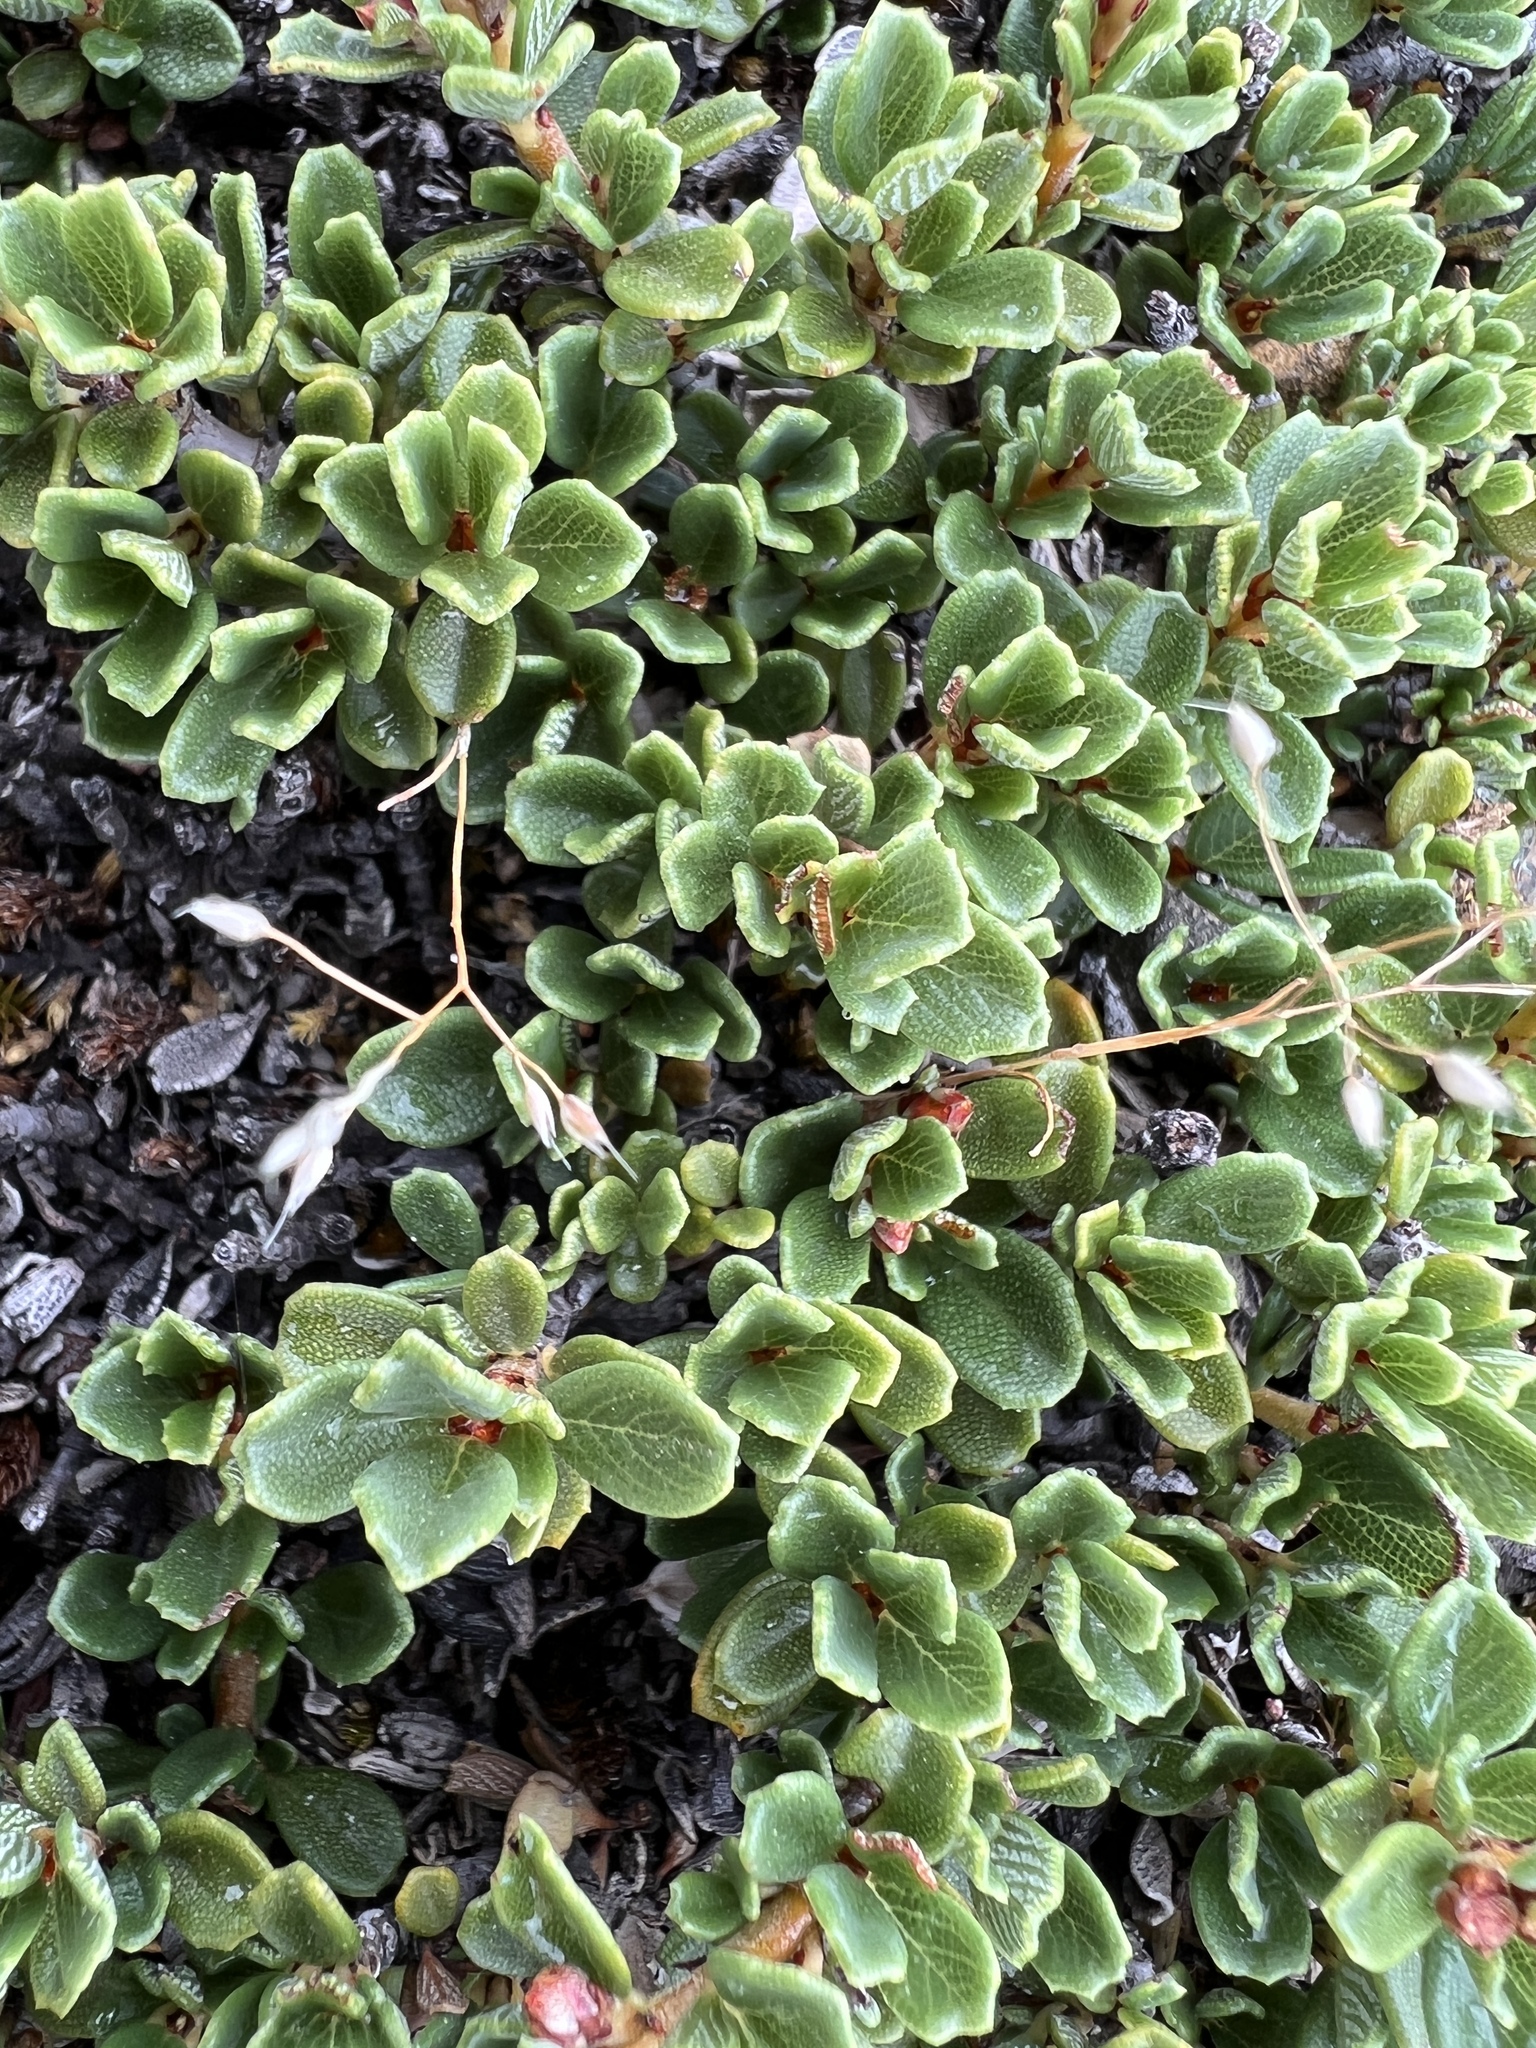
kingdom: Plantae
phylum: Tracheophyta
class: Magnoliopsida
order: Rosales
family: Rhamnaceae
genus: Ceanothus
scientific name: Ceanothus pumilus
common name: Siskiyou-mat
